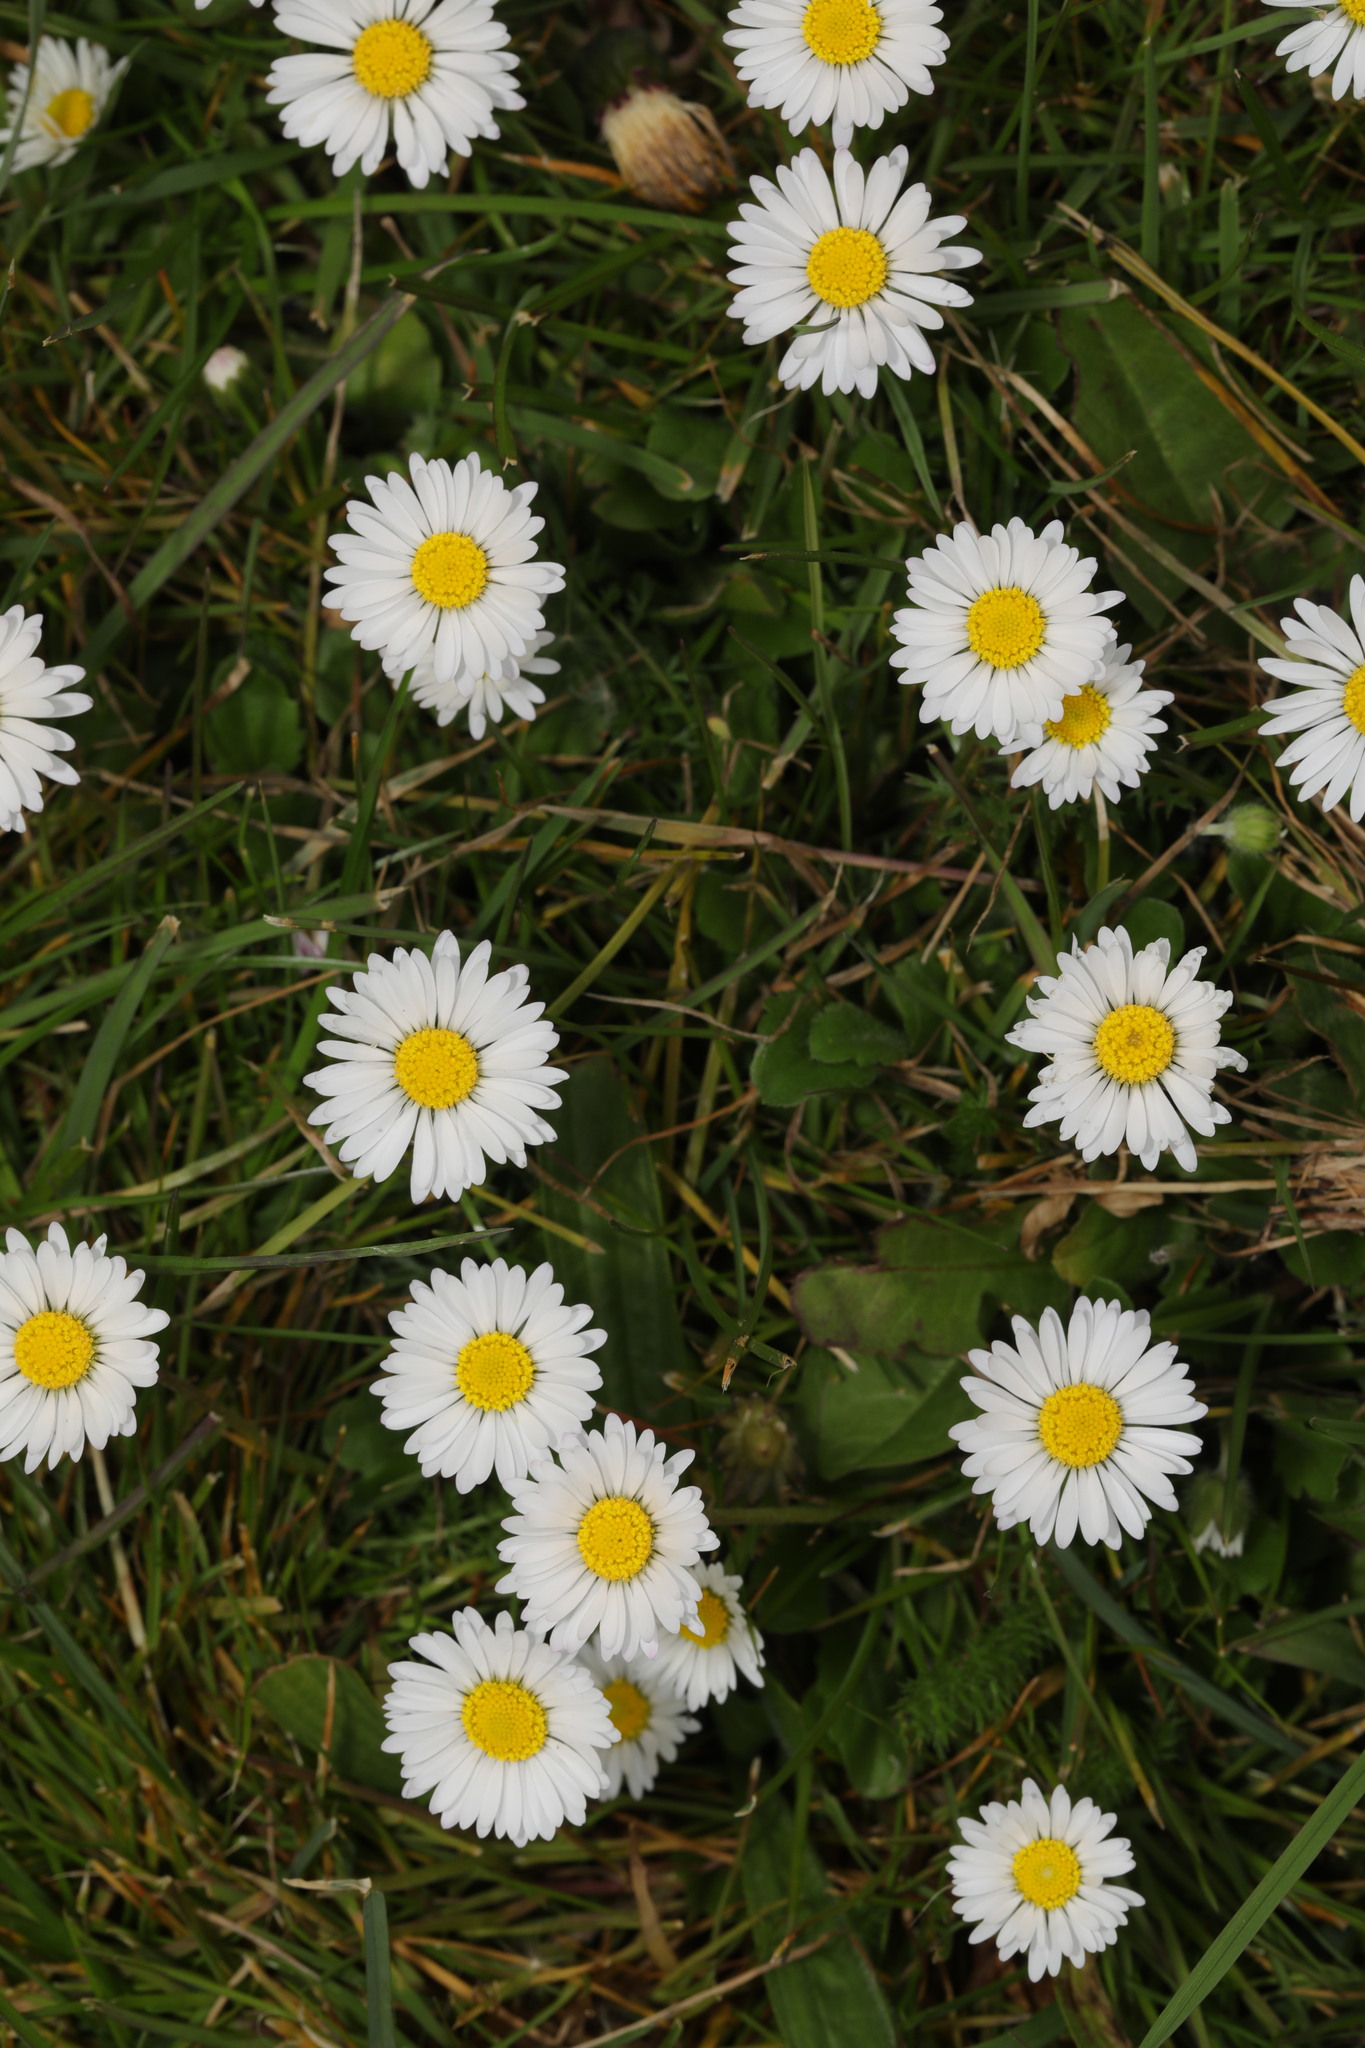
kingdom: Plantae
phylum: Tracheophyta
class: Magnoliopsida
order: Asterales
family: Asteraceae
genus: Bellis
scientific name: Bellis perennis
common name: Lawndaisy
